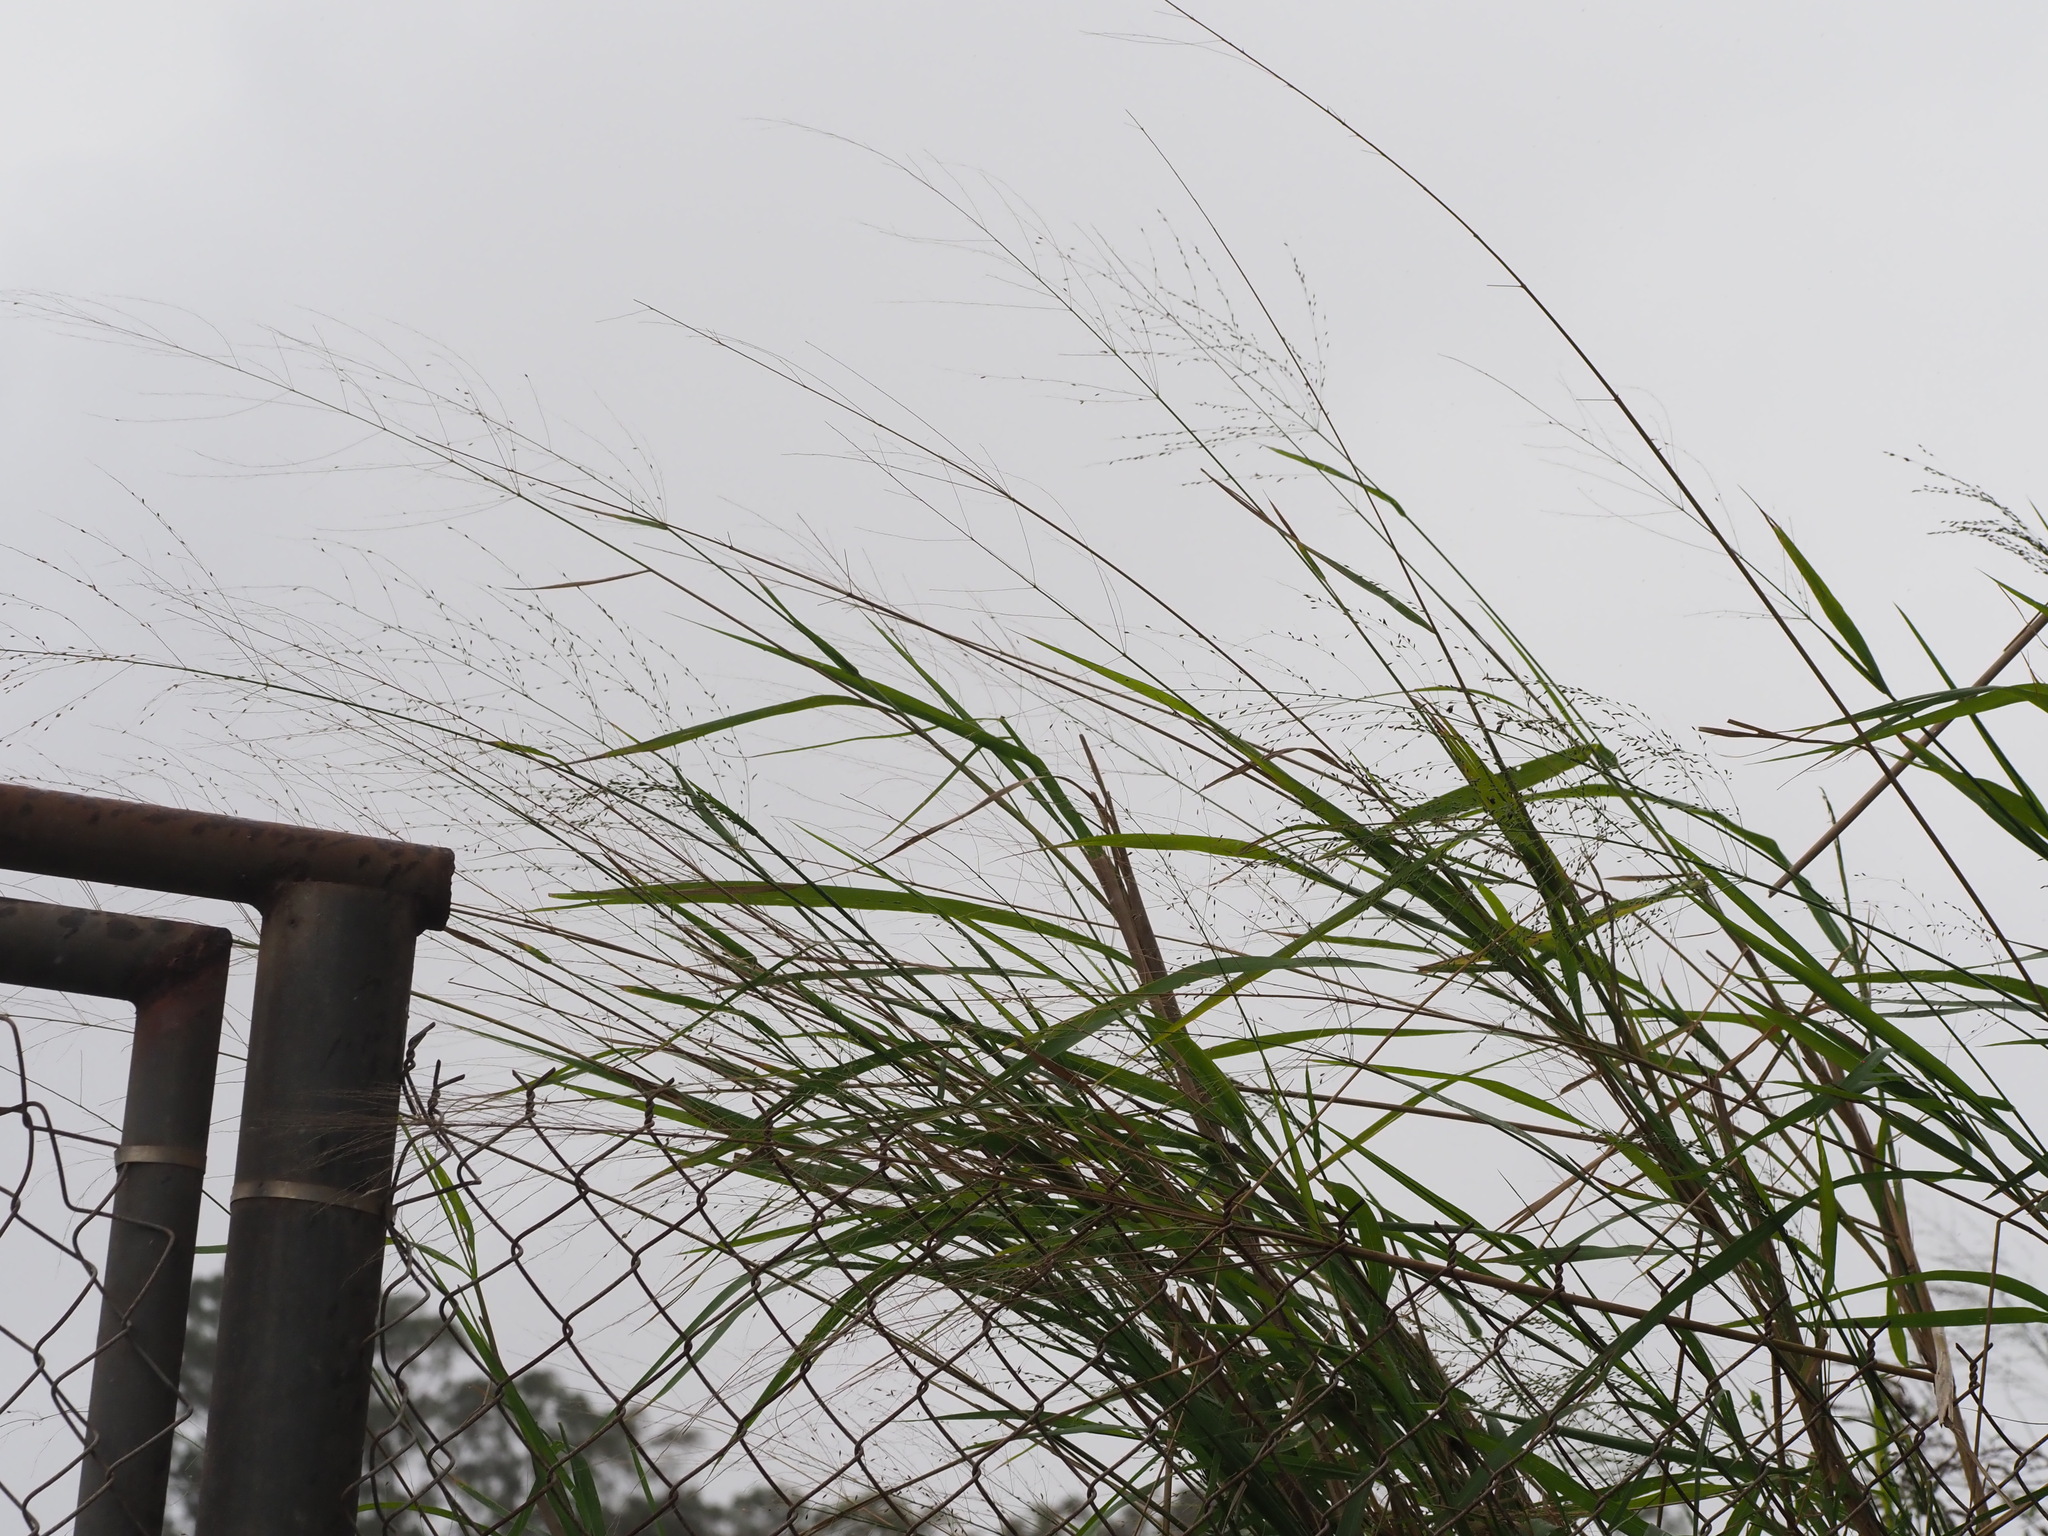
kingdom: Plantae
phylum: Tracheophyta
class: Liliopsida
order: Poales
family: Poaceae
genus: Megathyrsus
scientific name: Megathyrsus maximus
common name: Guineagrass
